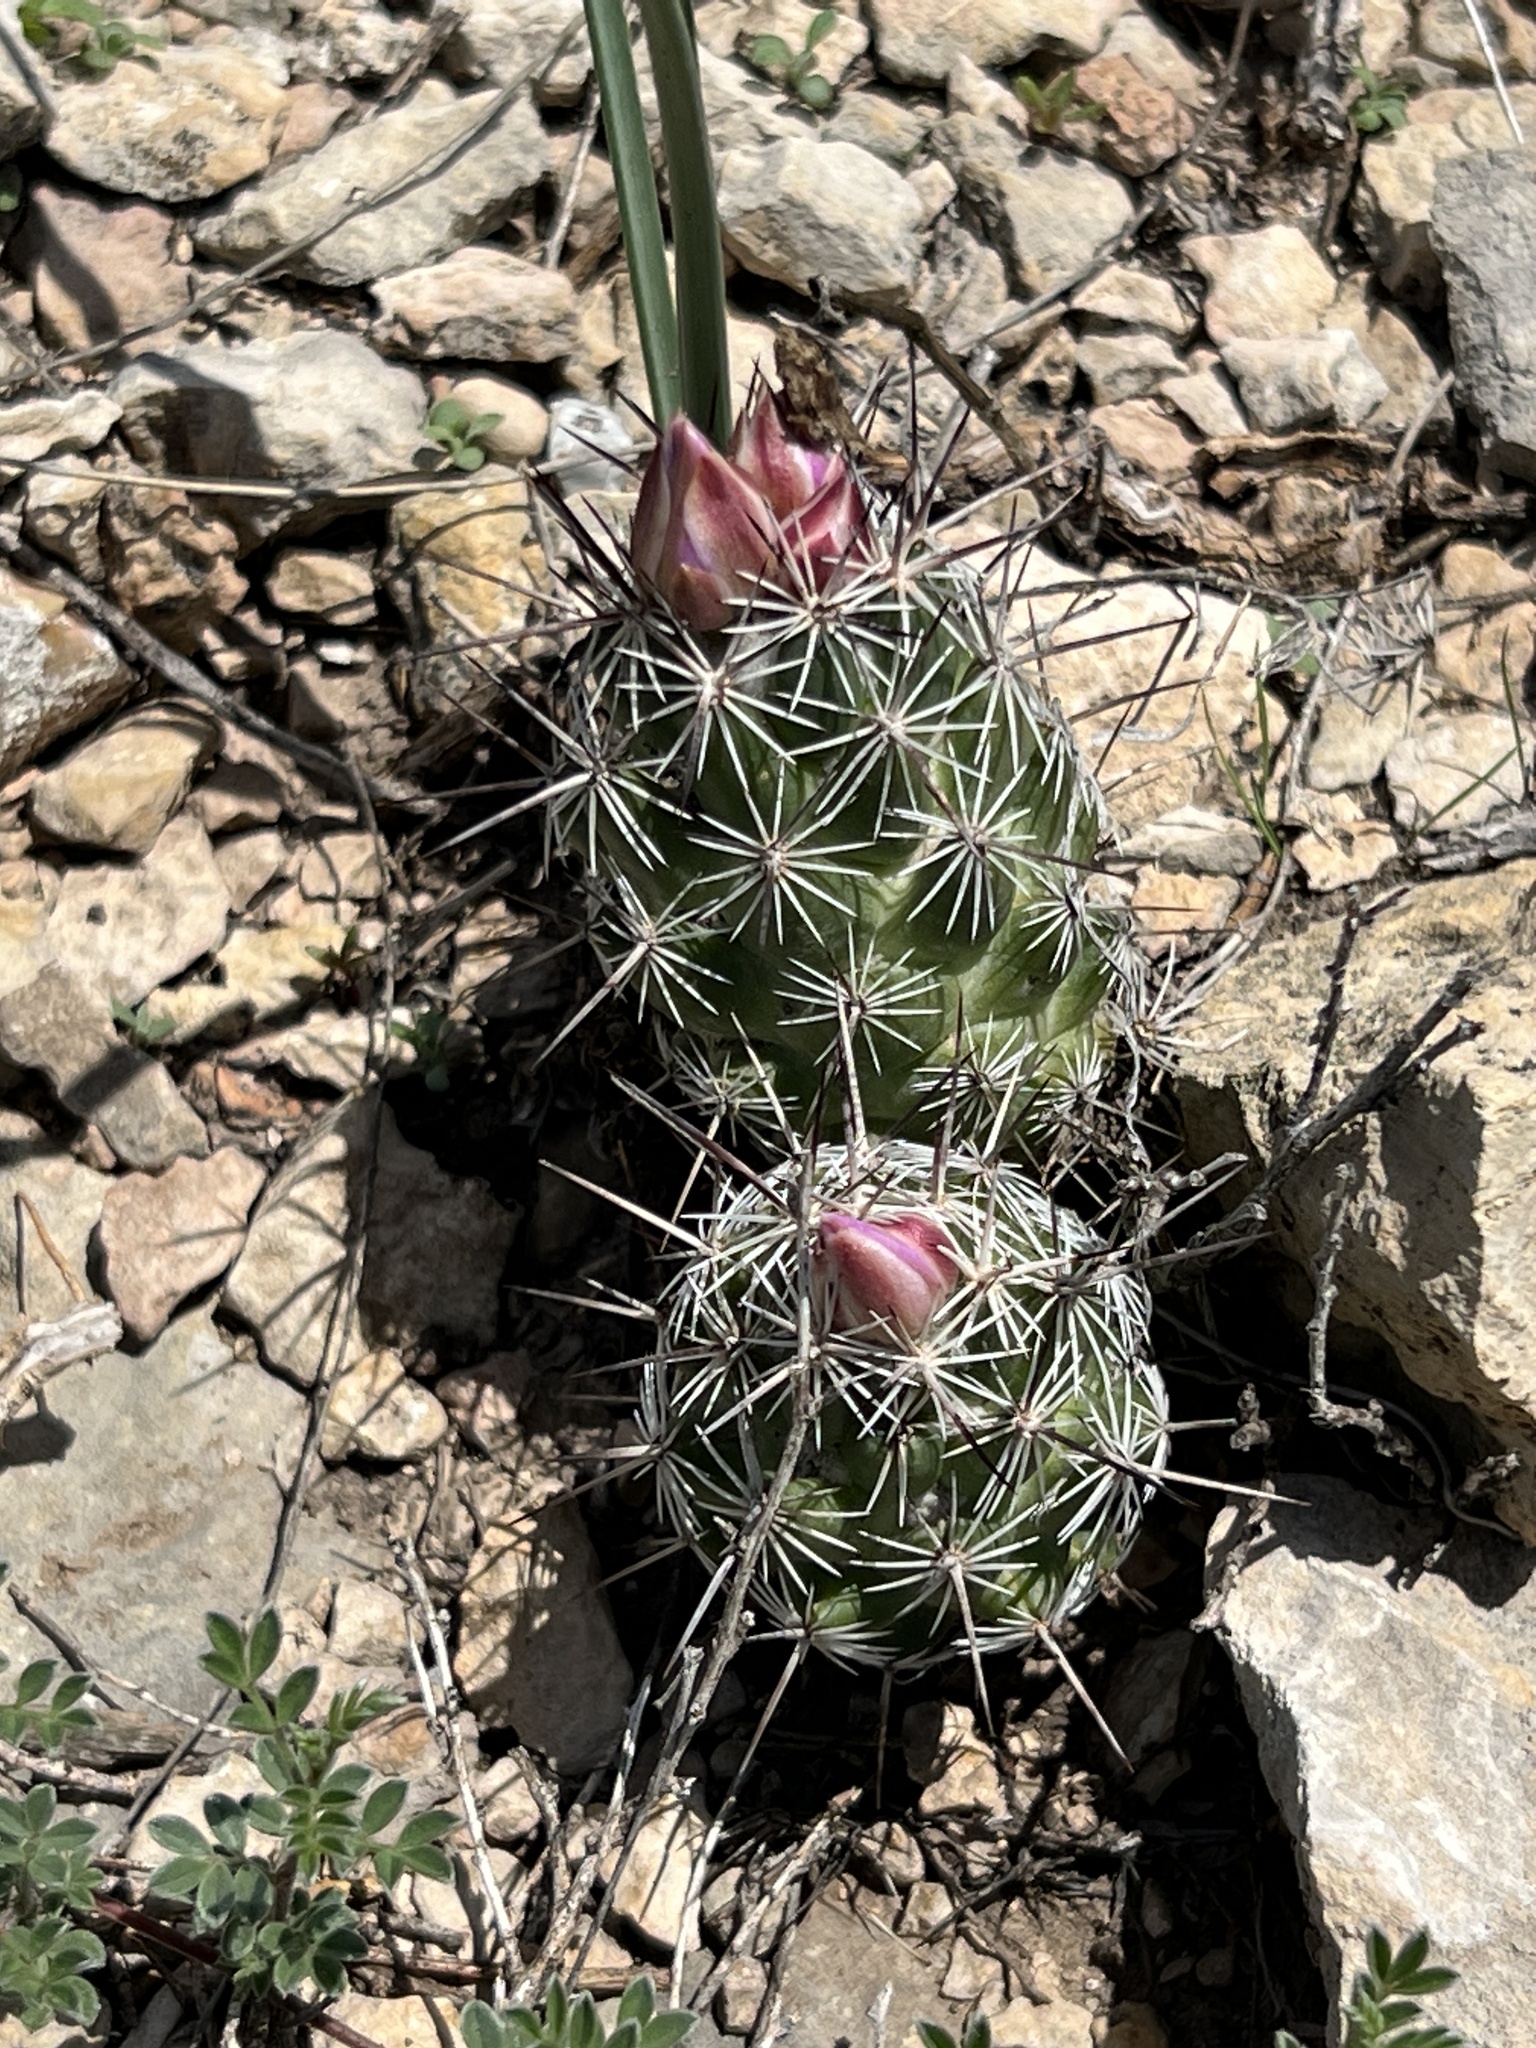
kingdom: Plantae
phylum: Tracheophyta
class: Magnoliopsida
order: Caryophyllales
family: Cactaceae
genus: Cochemiea
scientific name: Cochemiea conoidea
